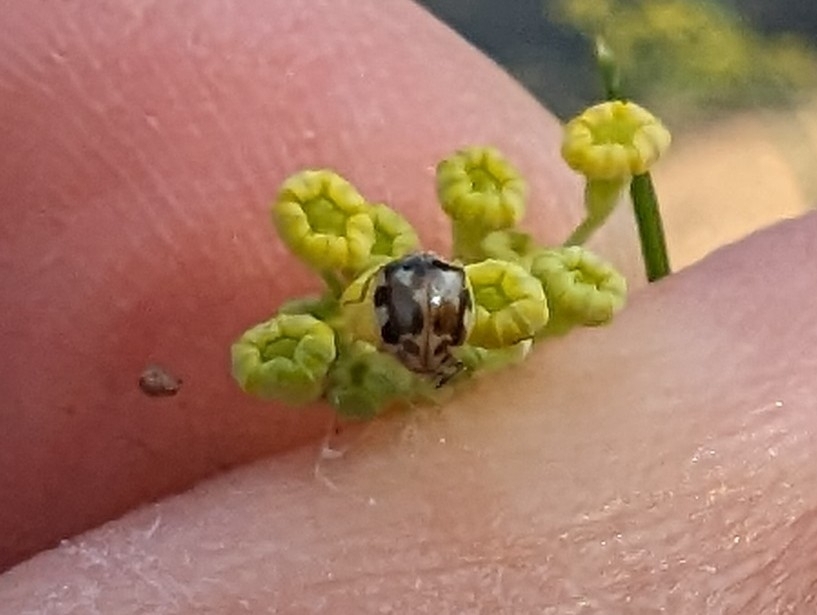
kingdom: Animalia
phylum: Arthropoda
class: Insecta
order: Coleoptera
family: Coccinellidae
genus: Psyllobora
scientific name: Psyllobora vigintimaculata
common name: Ladybird beetle
